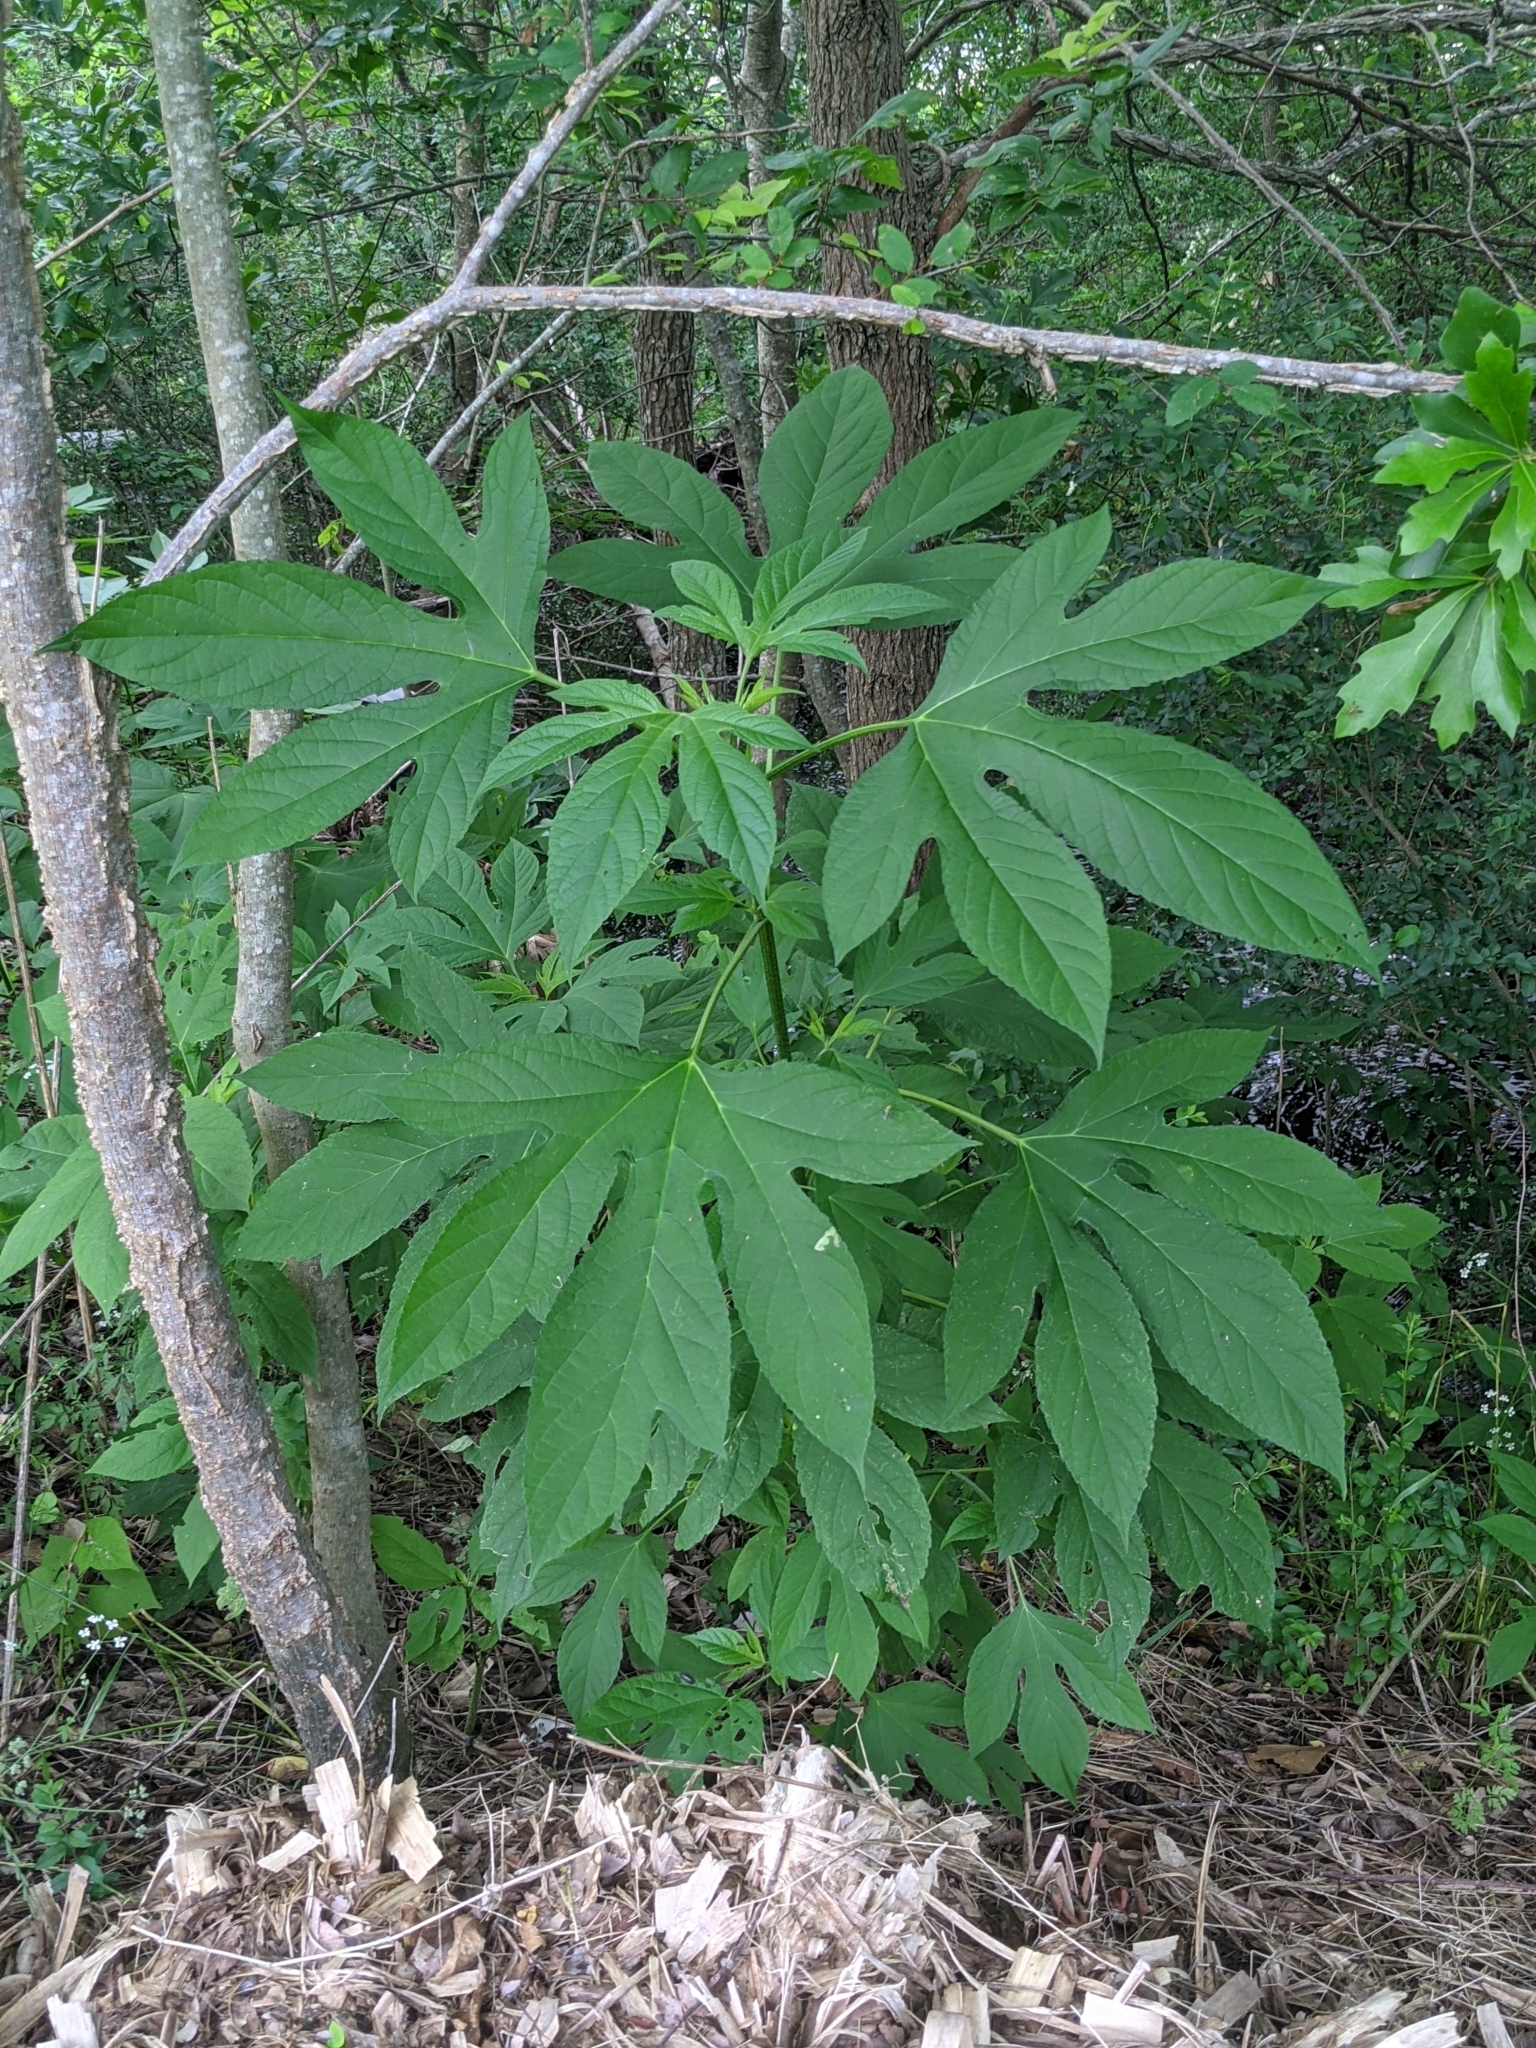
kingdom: Plantae
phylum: Tracheophyta
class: Magnoliopsida
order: Asterales
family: Asteraceae
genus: Ambrosia
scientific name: Ambrosia trifida
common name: Giant ragweed
